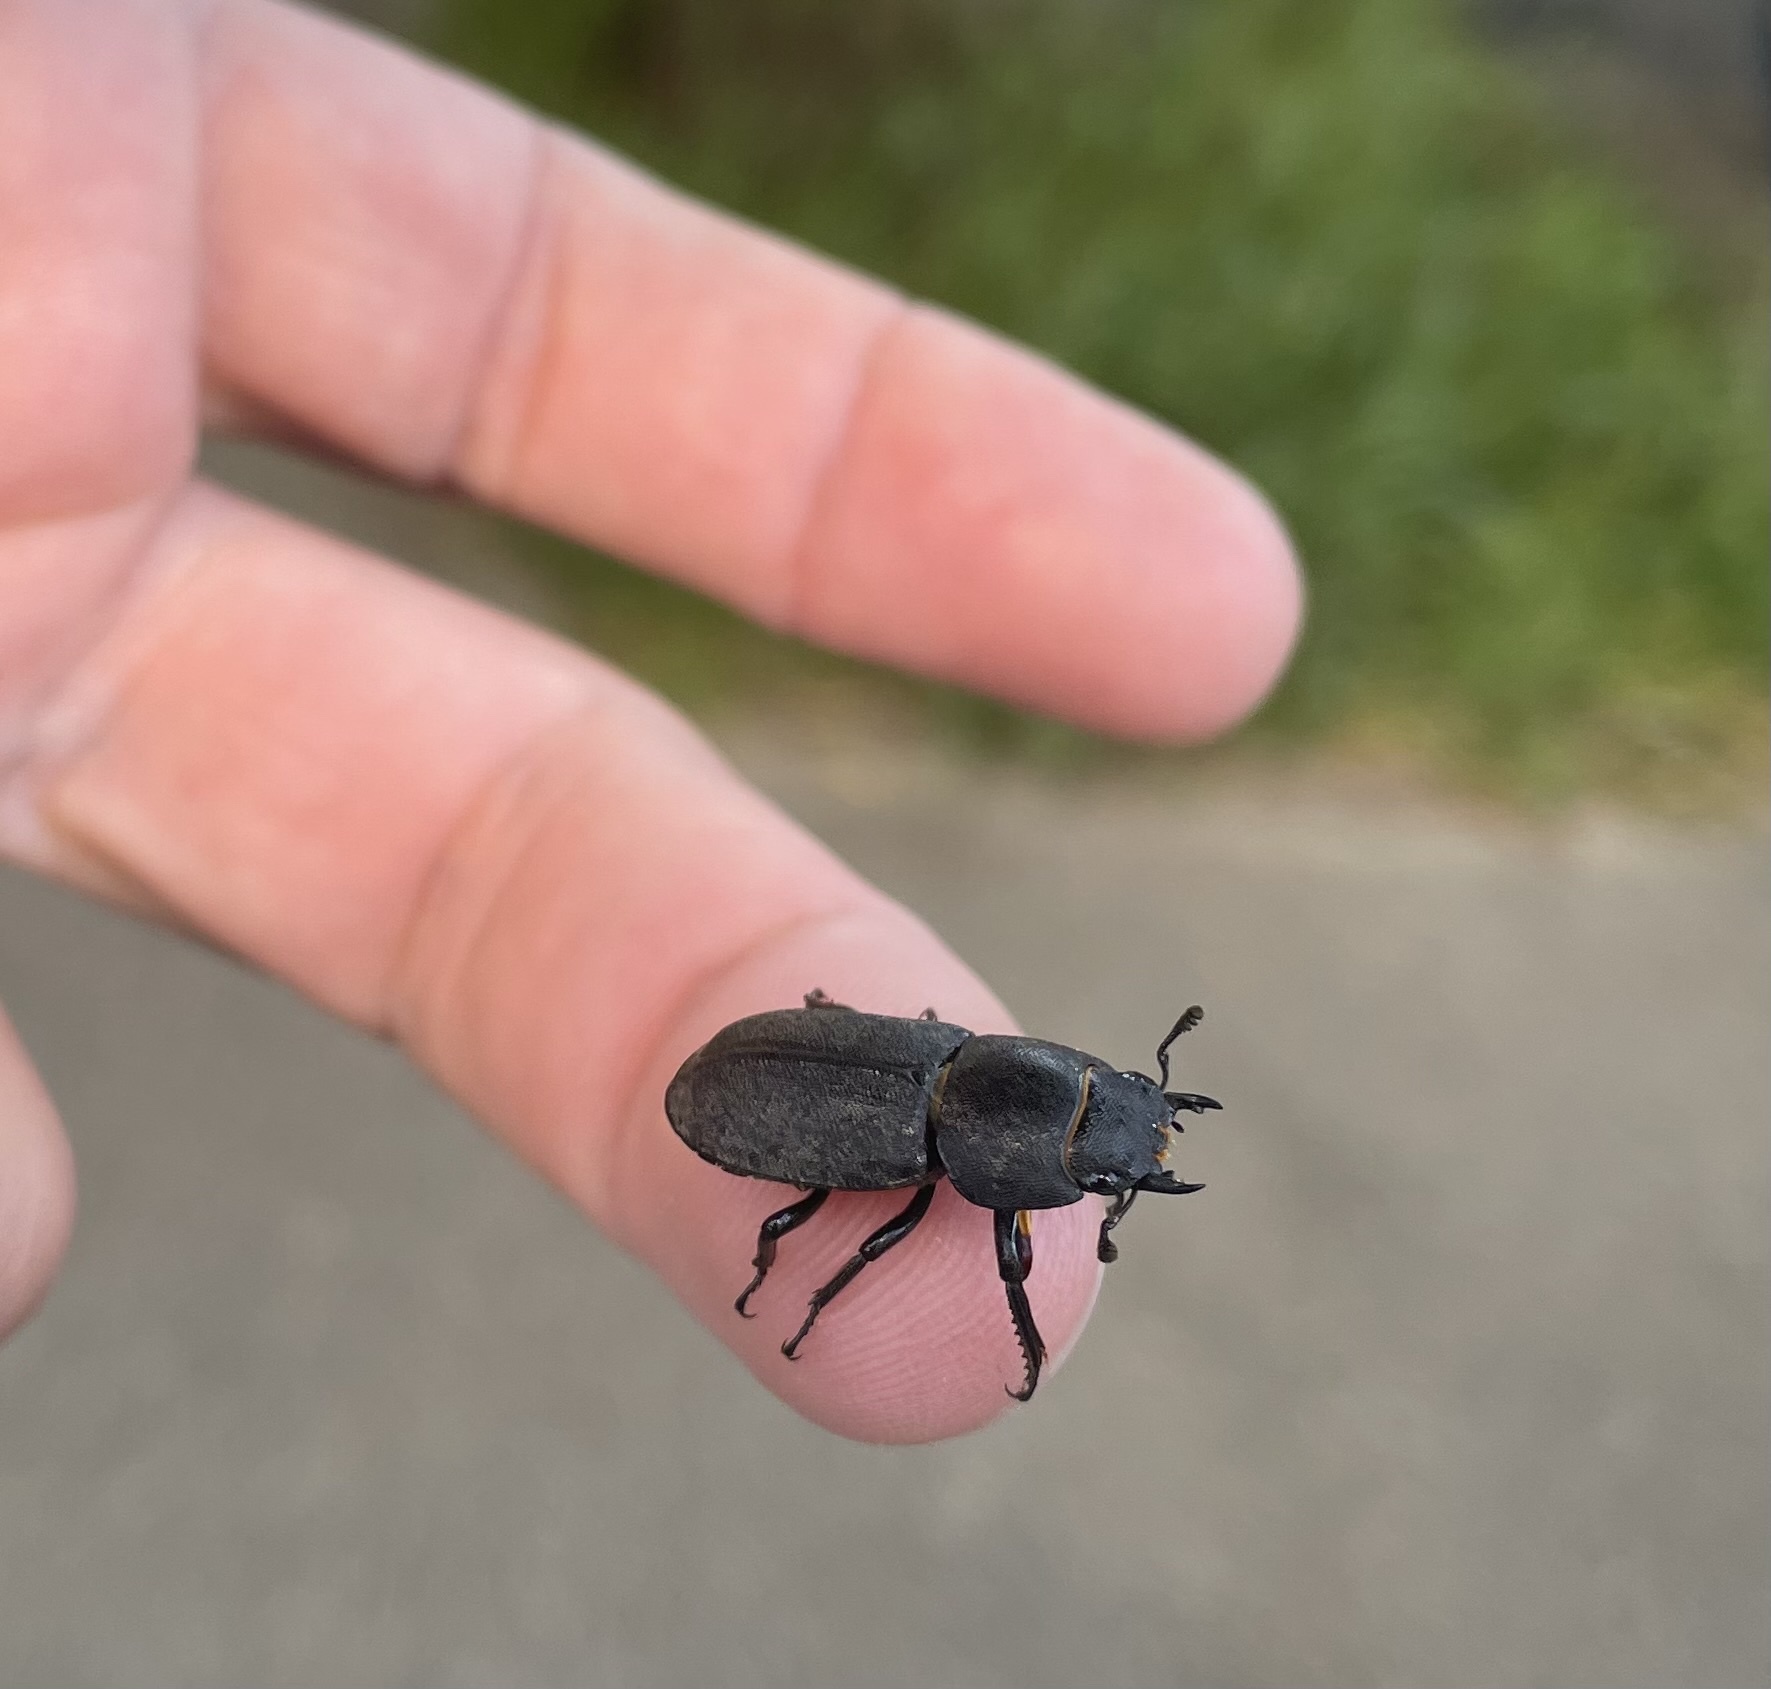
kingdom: Animalia
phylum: Arthropoda
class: Insecta
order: Coleoptera
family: Lucanidae
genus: Dorcus
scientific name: Dorcus parallelipipedus
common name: Lesser stag beetle
